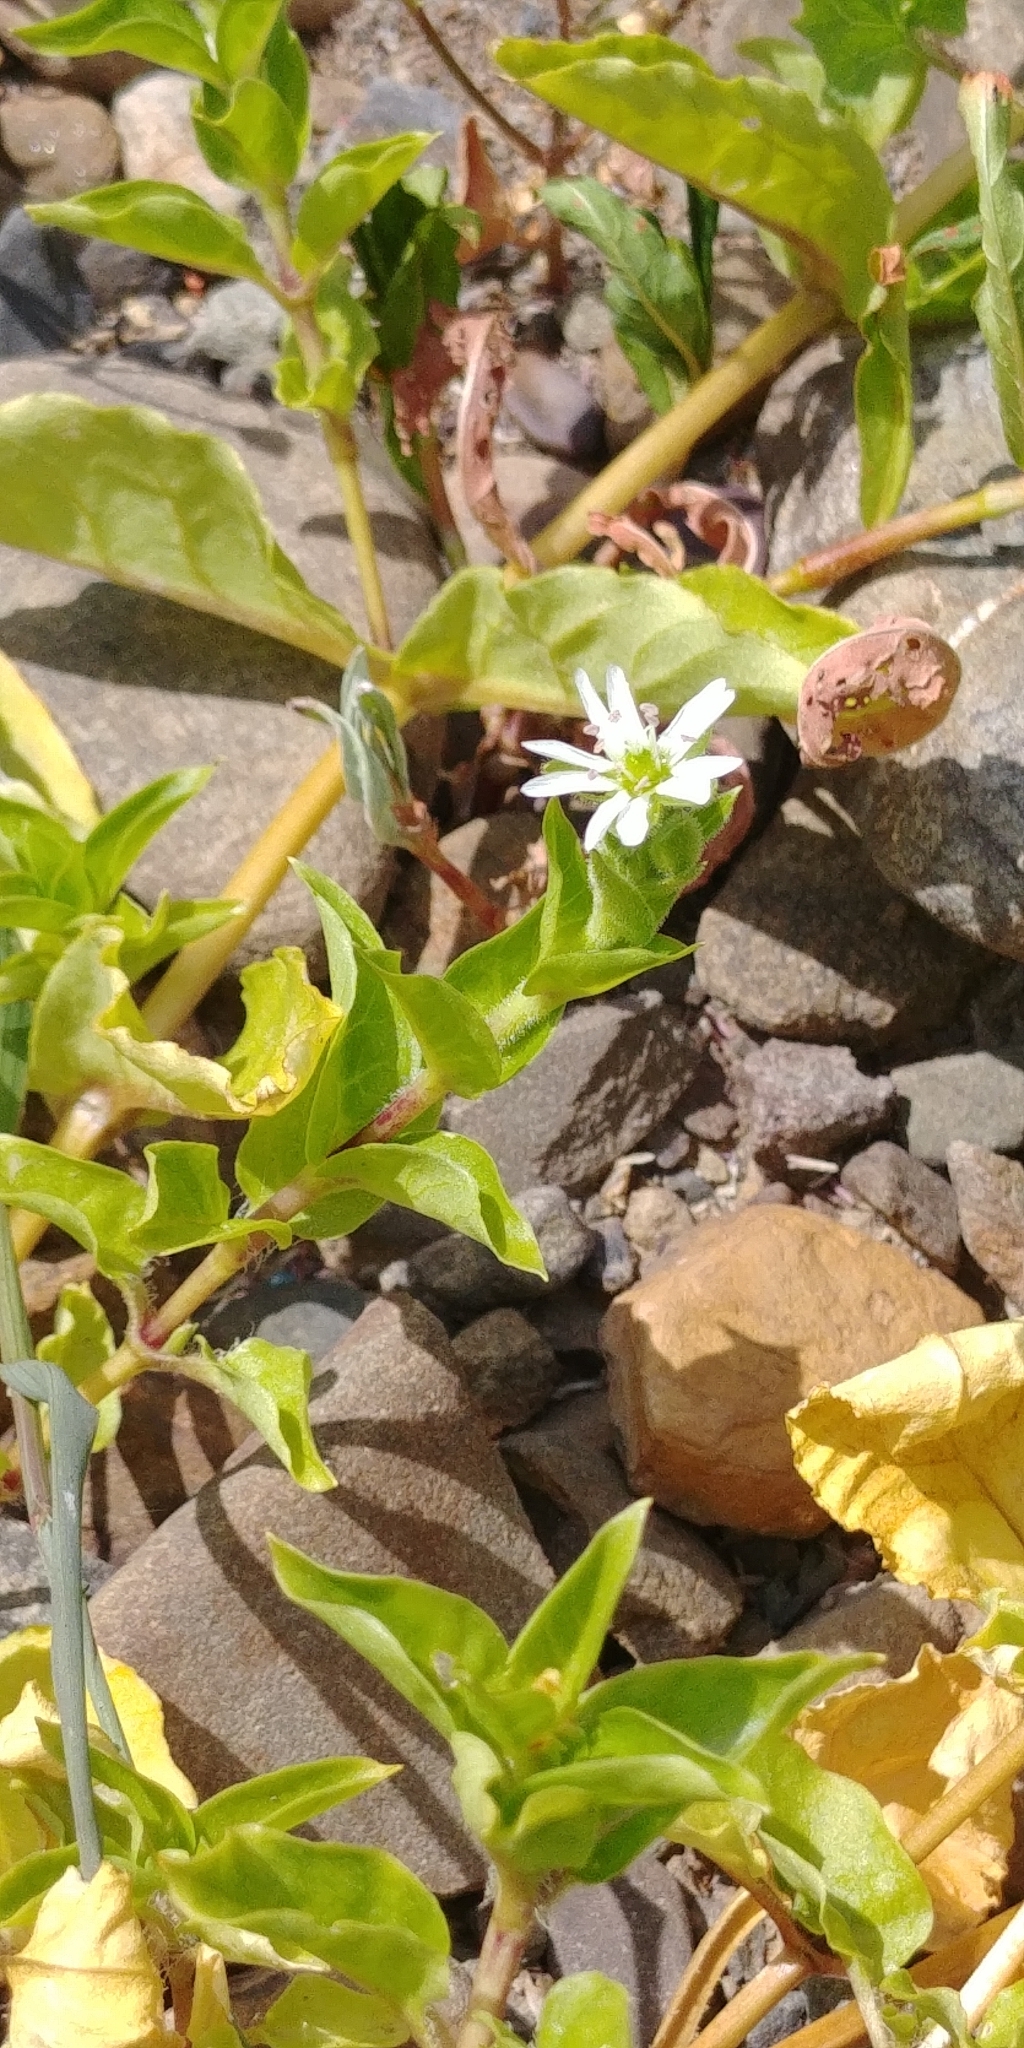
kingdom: Plantae
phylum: Tracheophyta
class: Magnoliopsida
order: Caryophyllales
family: Caryophyllaceae
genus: Stellaria
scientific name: Stellaria aquatica
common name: Water chickweed
